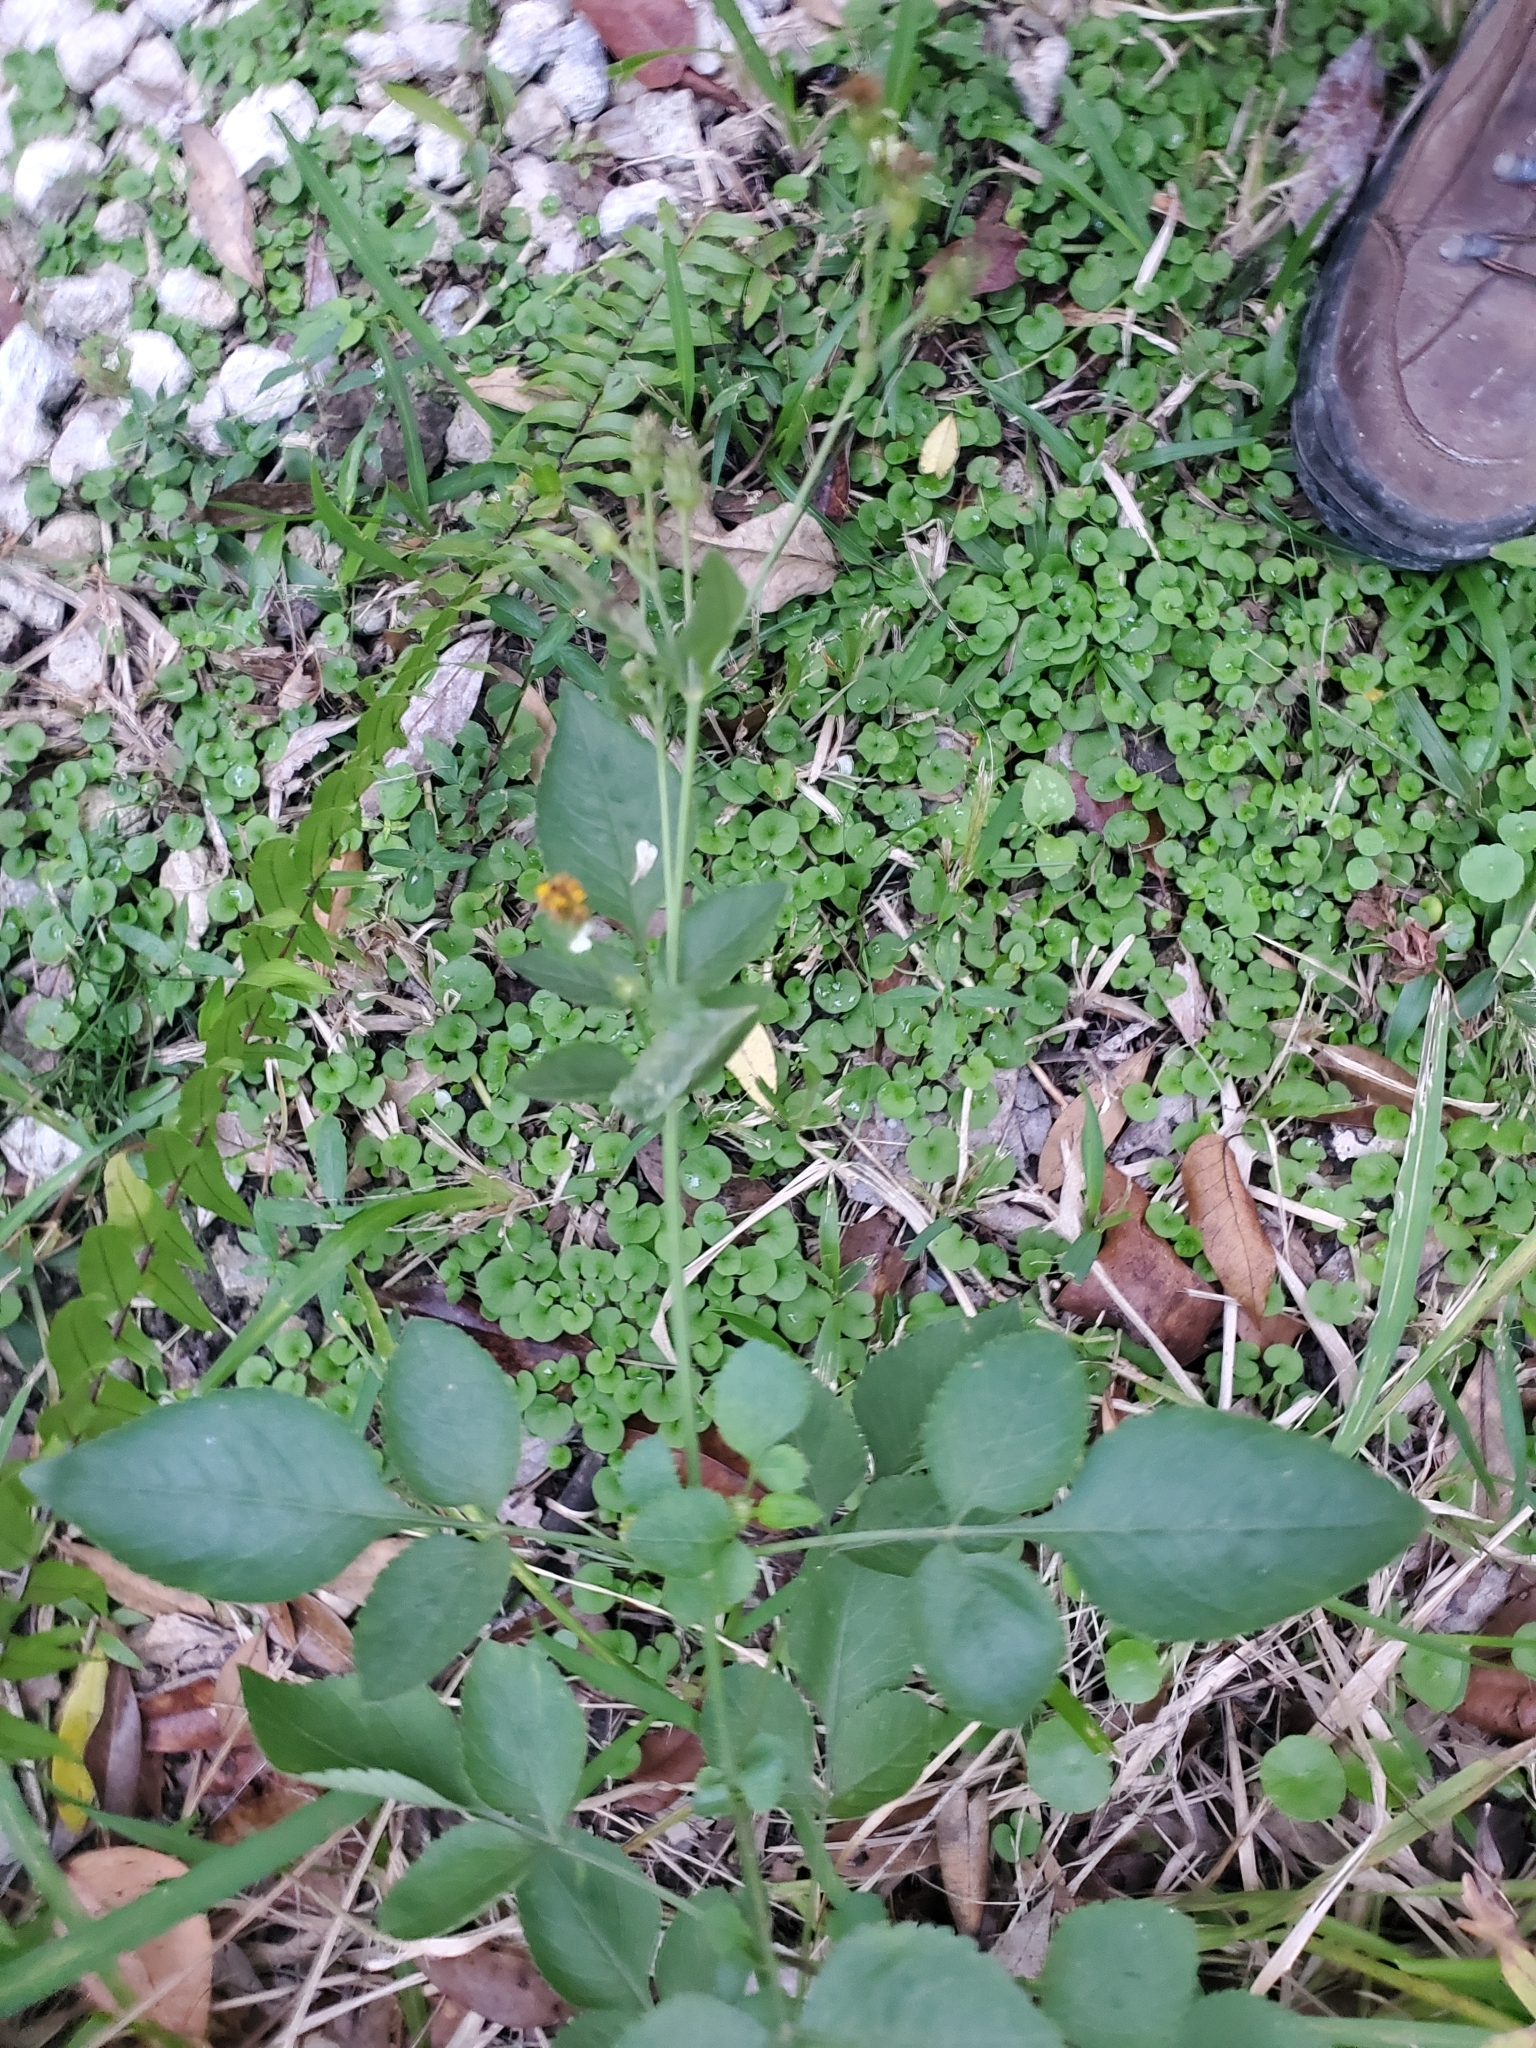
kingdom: Plantae
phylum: Tracheophyta
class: Magnoliopsida
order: Asterales
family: Asteraceae
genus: Bidens
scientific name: Bidens alba
